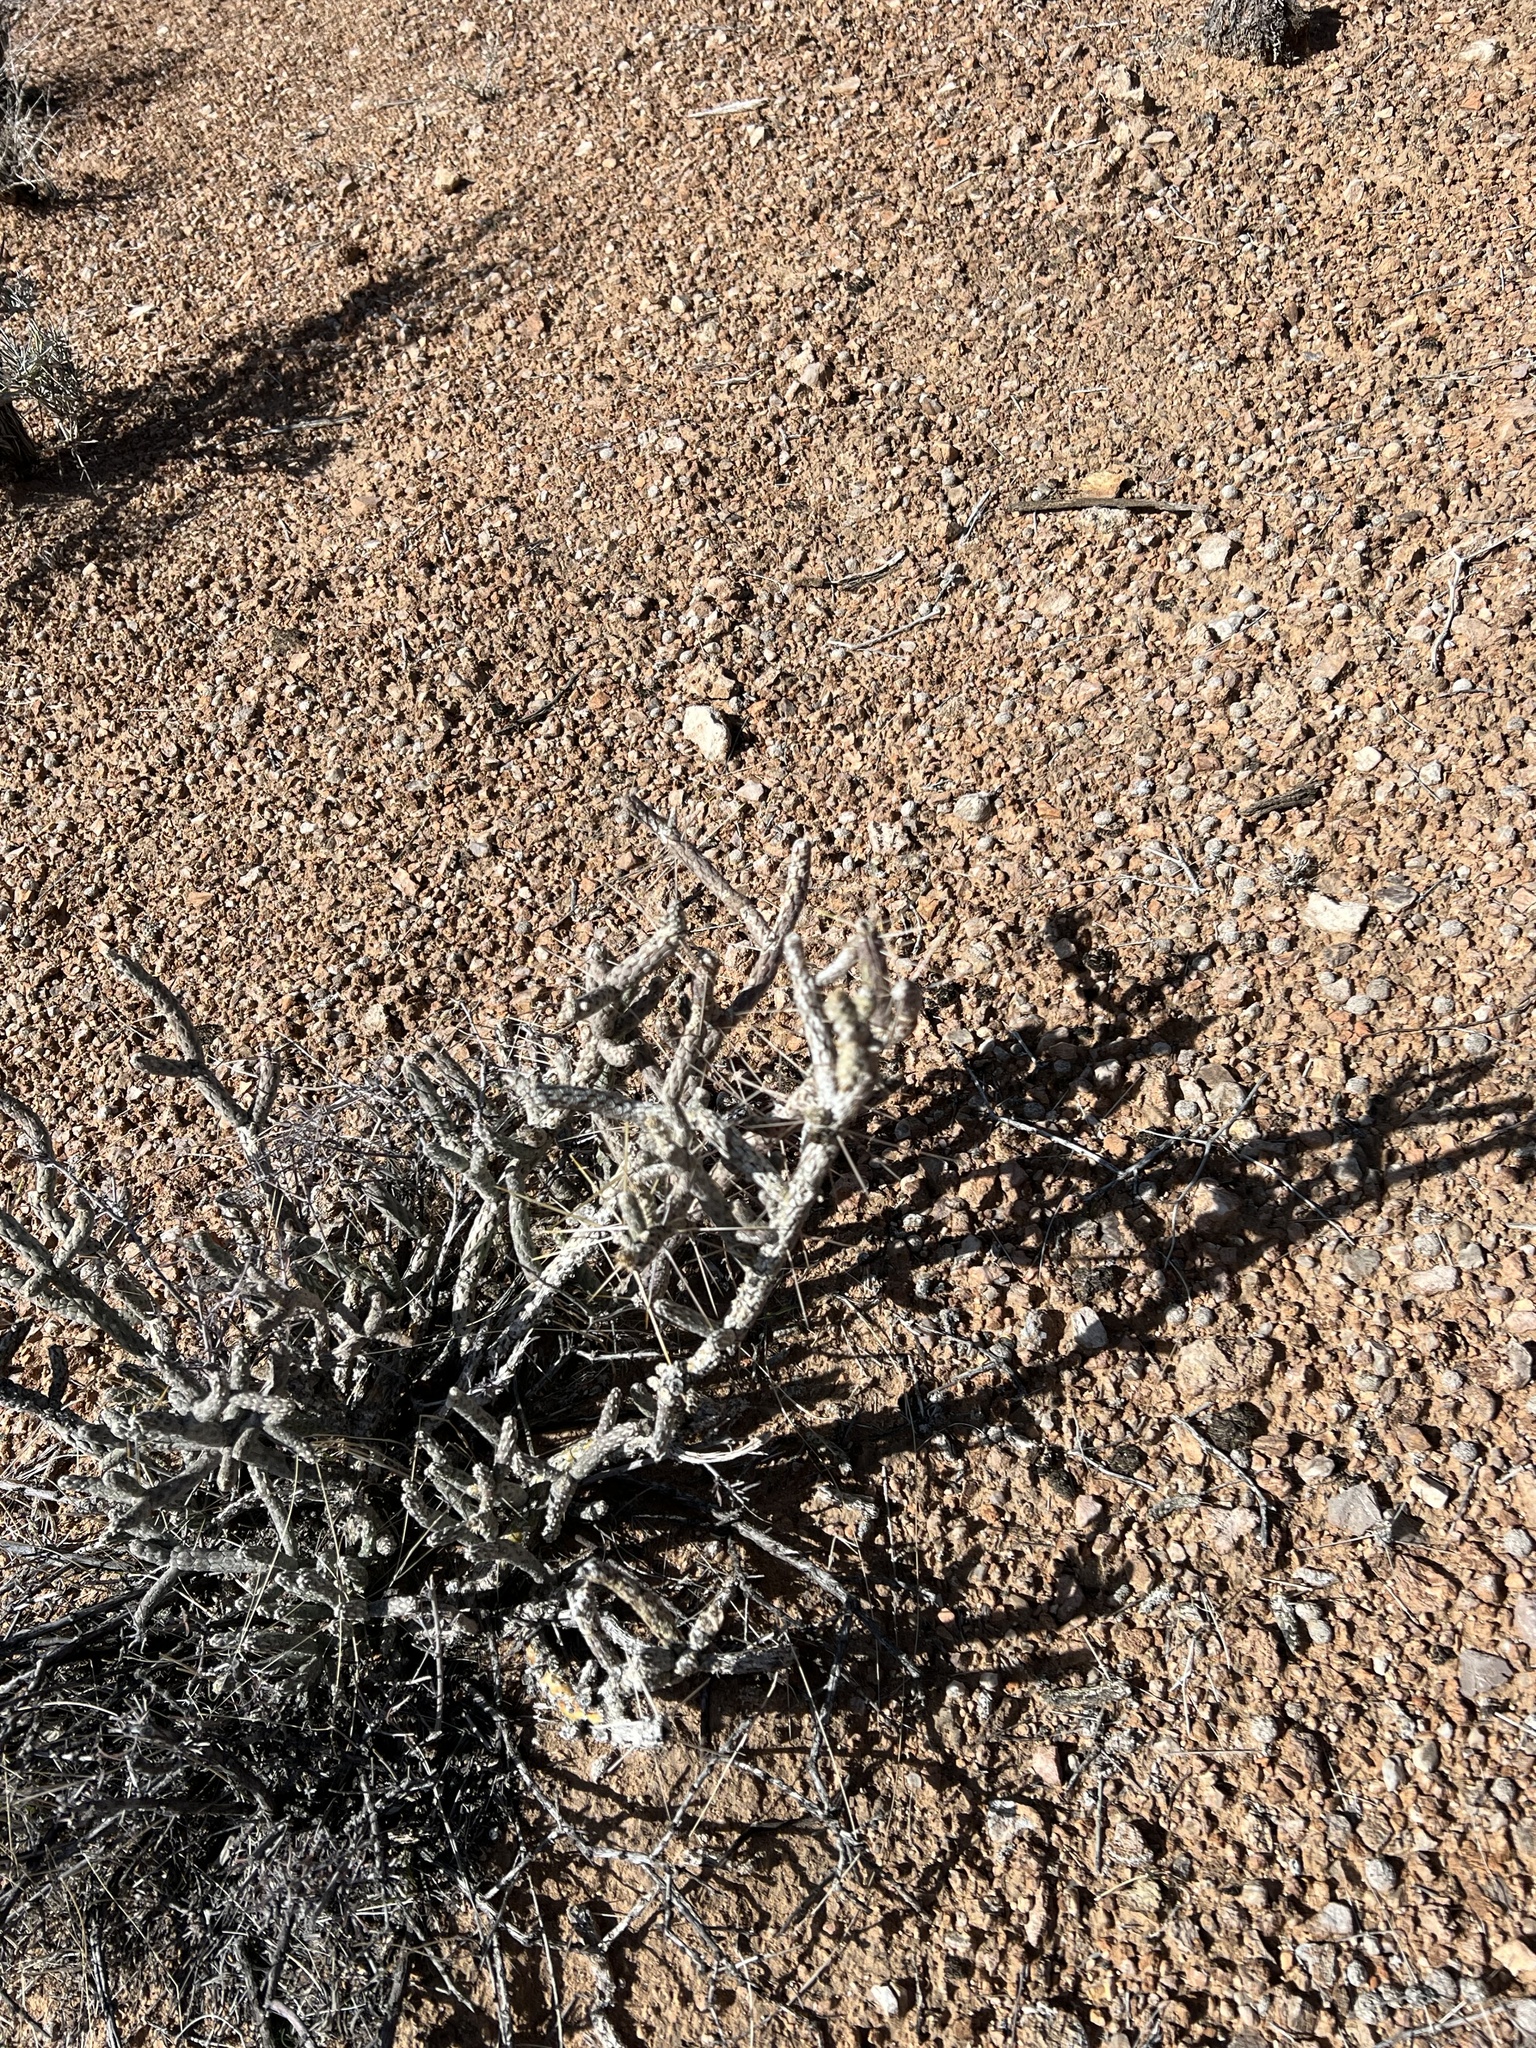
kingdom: Plantae
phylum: Tracheophyta
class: Magnoliopsida
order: Caryophyllales
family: Cactaceae
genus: Cylindropuntia
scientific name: Cylindropuntia ramosissima
